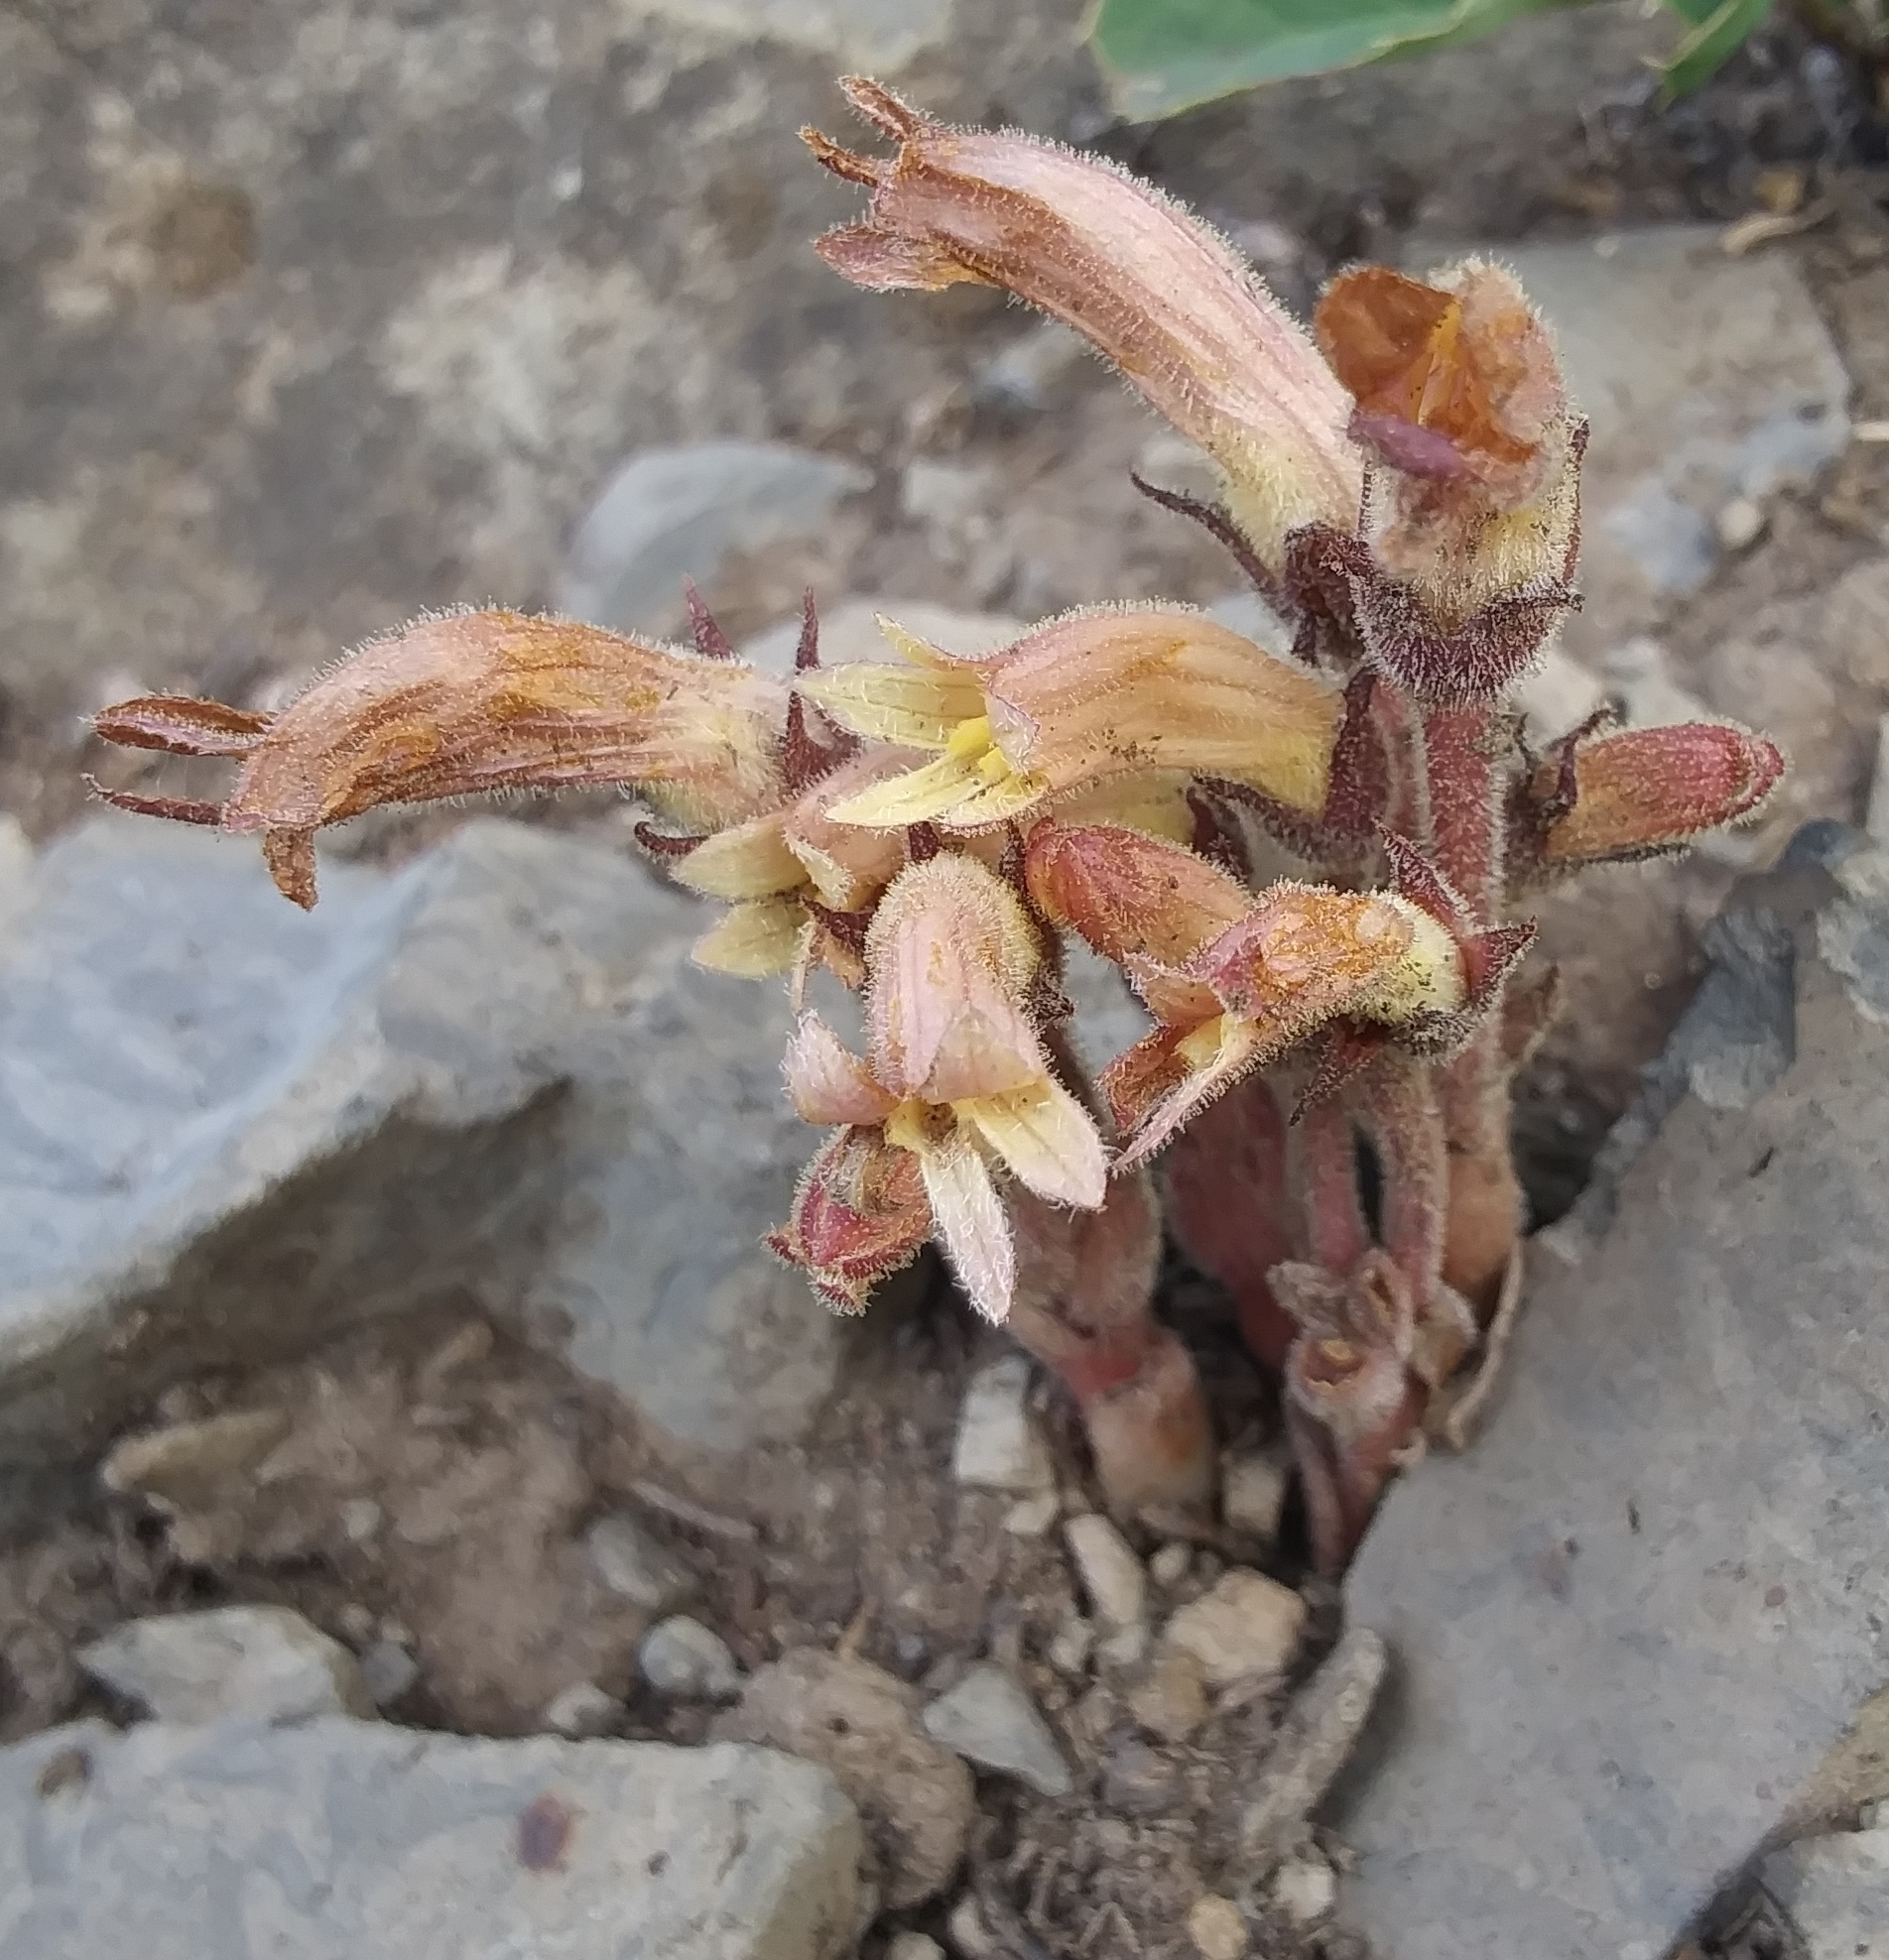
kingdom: Plantae
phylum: Tracheophyta
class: Magnoliopsida
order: Lamiales
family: Orobanchaceae
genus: Aphyllon
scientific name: Aphyllon fasciculatum
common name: Clustered broomrape
